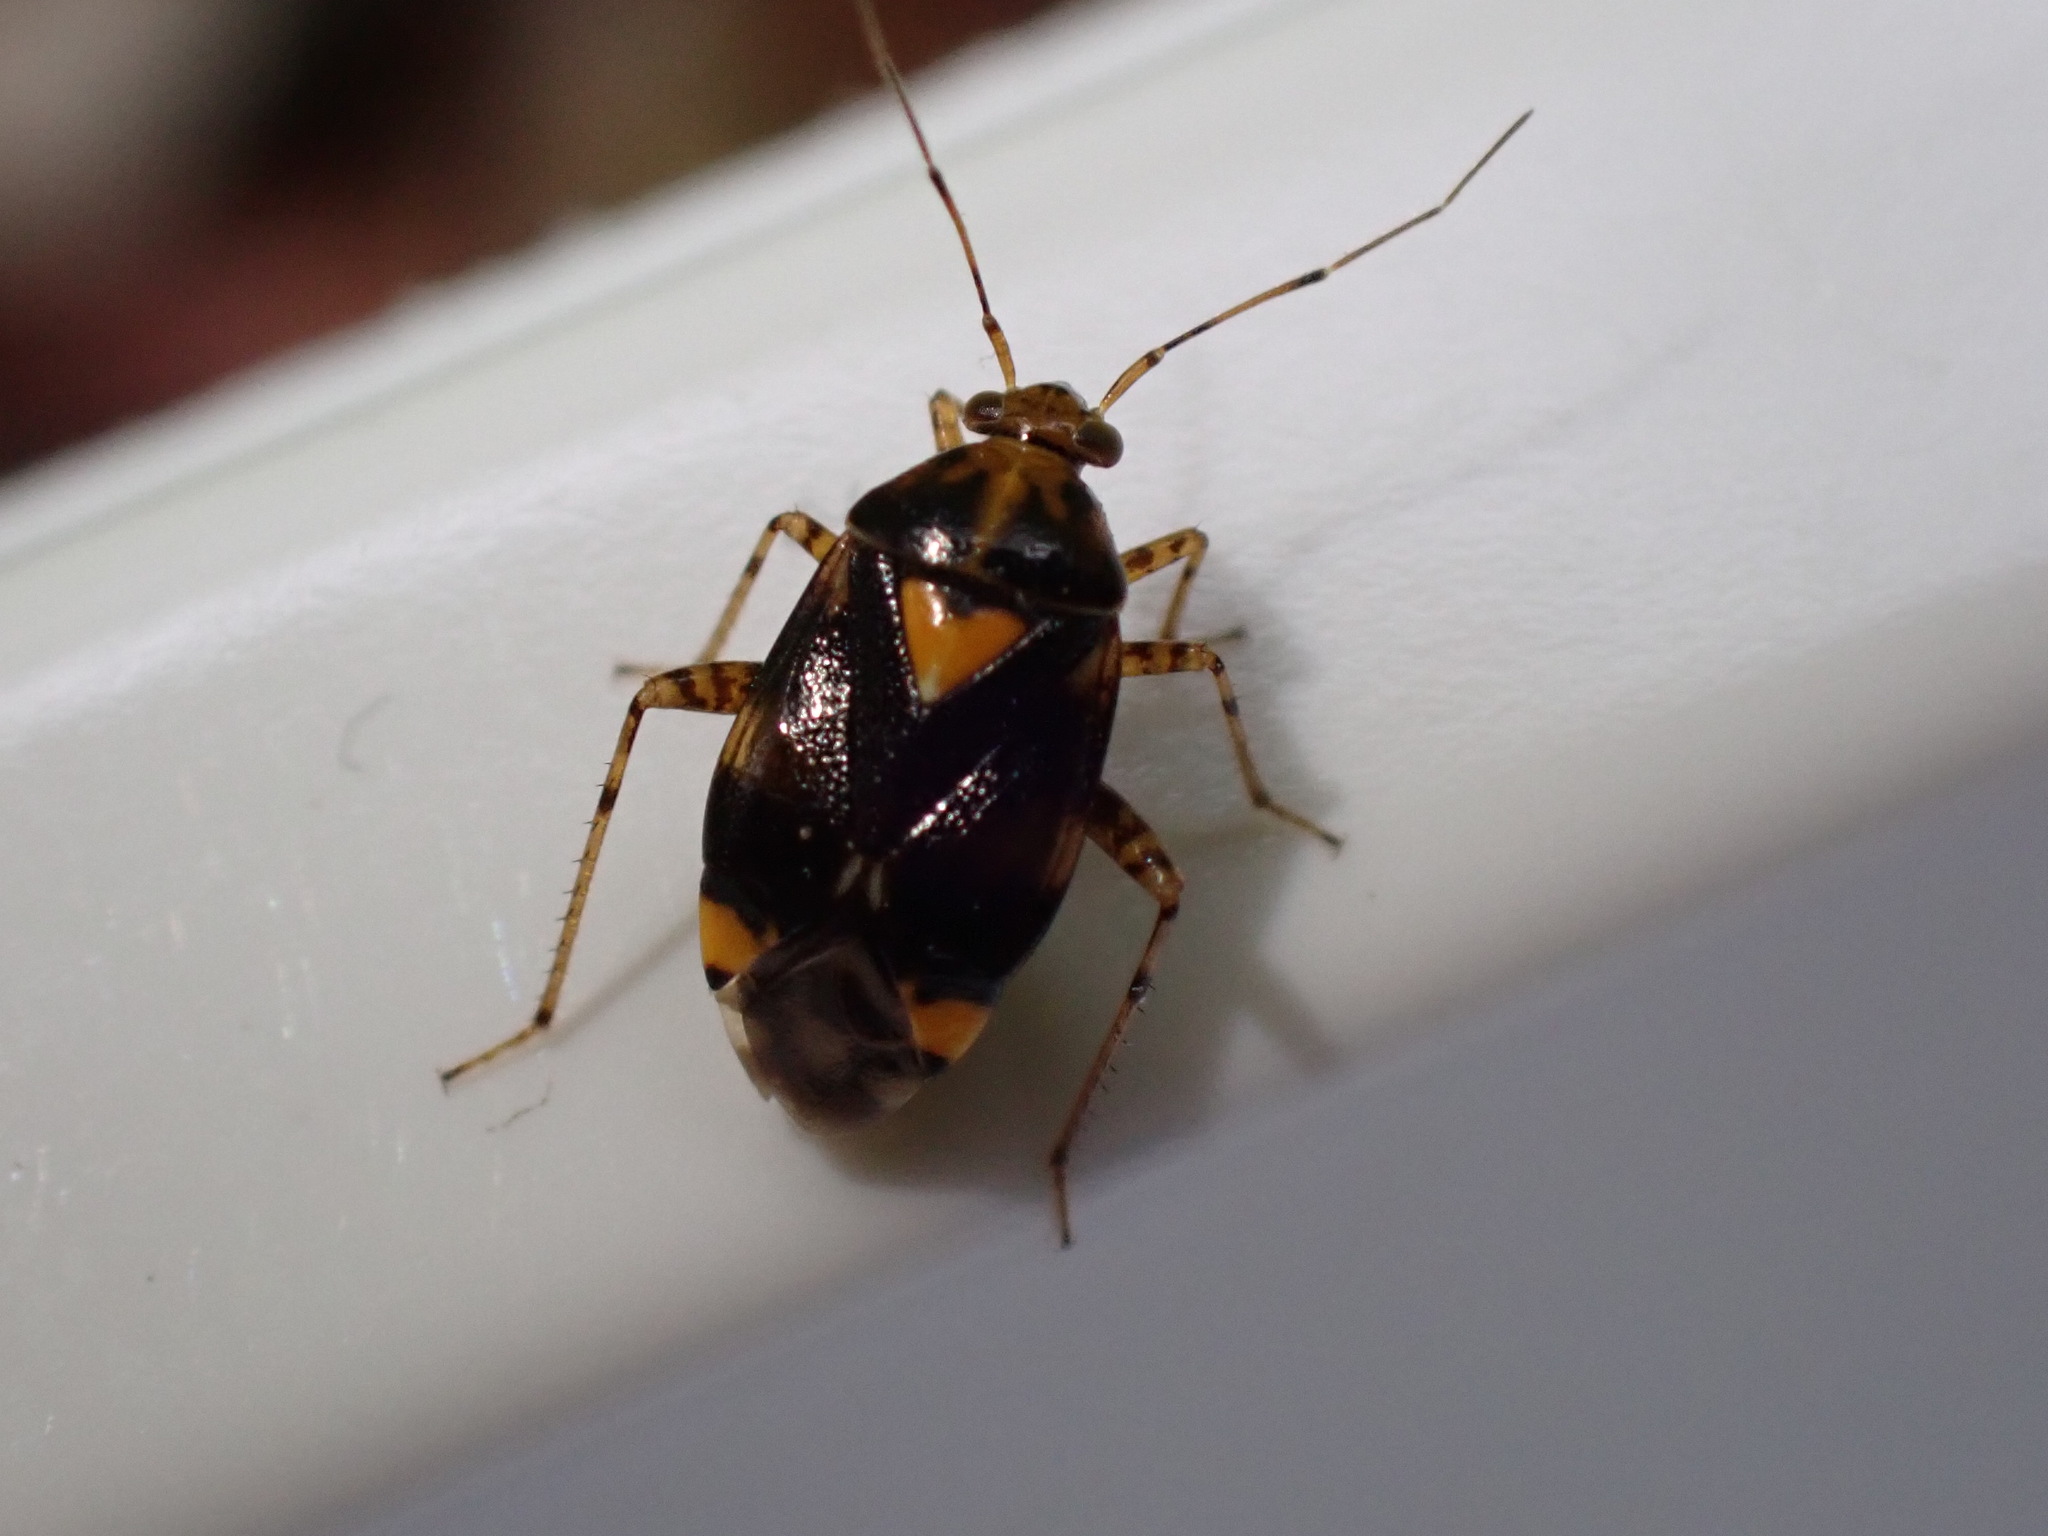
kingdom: Animalia
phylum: Arthropoda
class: Insecta
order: Hemiptera
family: Miridae
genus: Liocoris
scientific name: Liocoris tripustulatus
